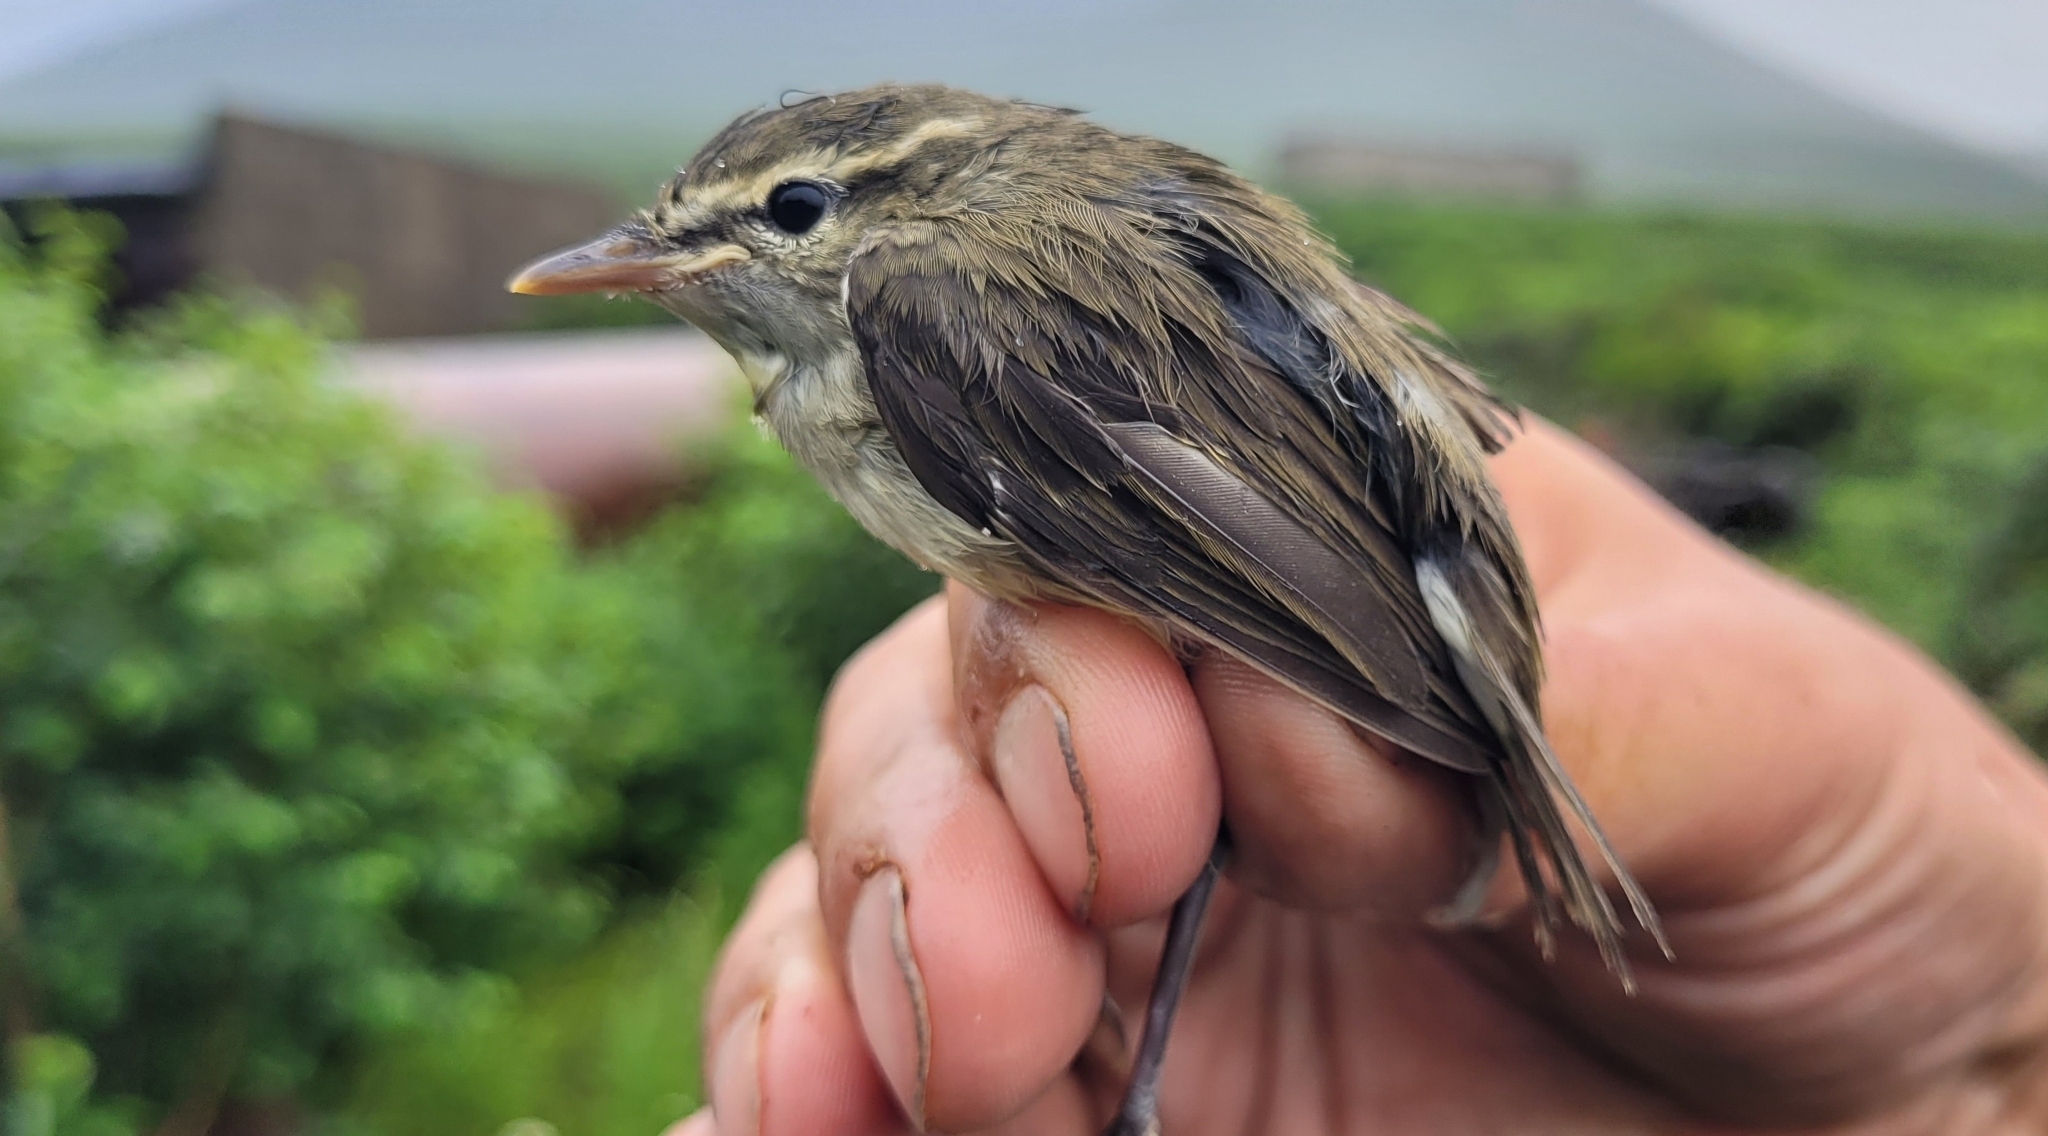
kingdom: Animalia
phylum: Chordata
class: Aves
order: Passeriformes
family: Phylloscopidae
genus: Phylloscopus
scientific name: Phylloscopus borealis
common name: Arctic warbler
